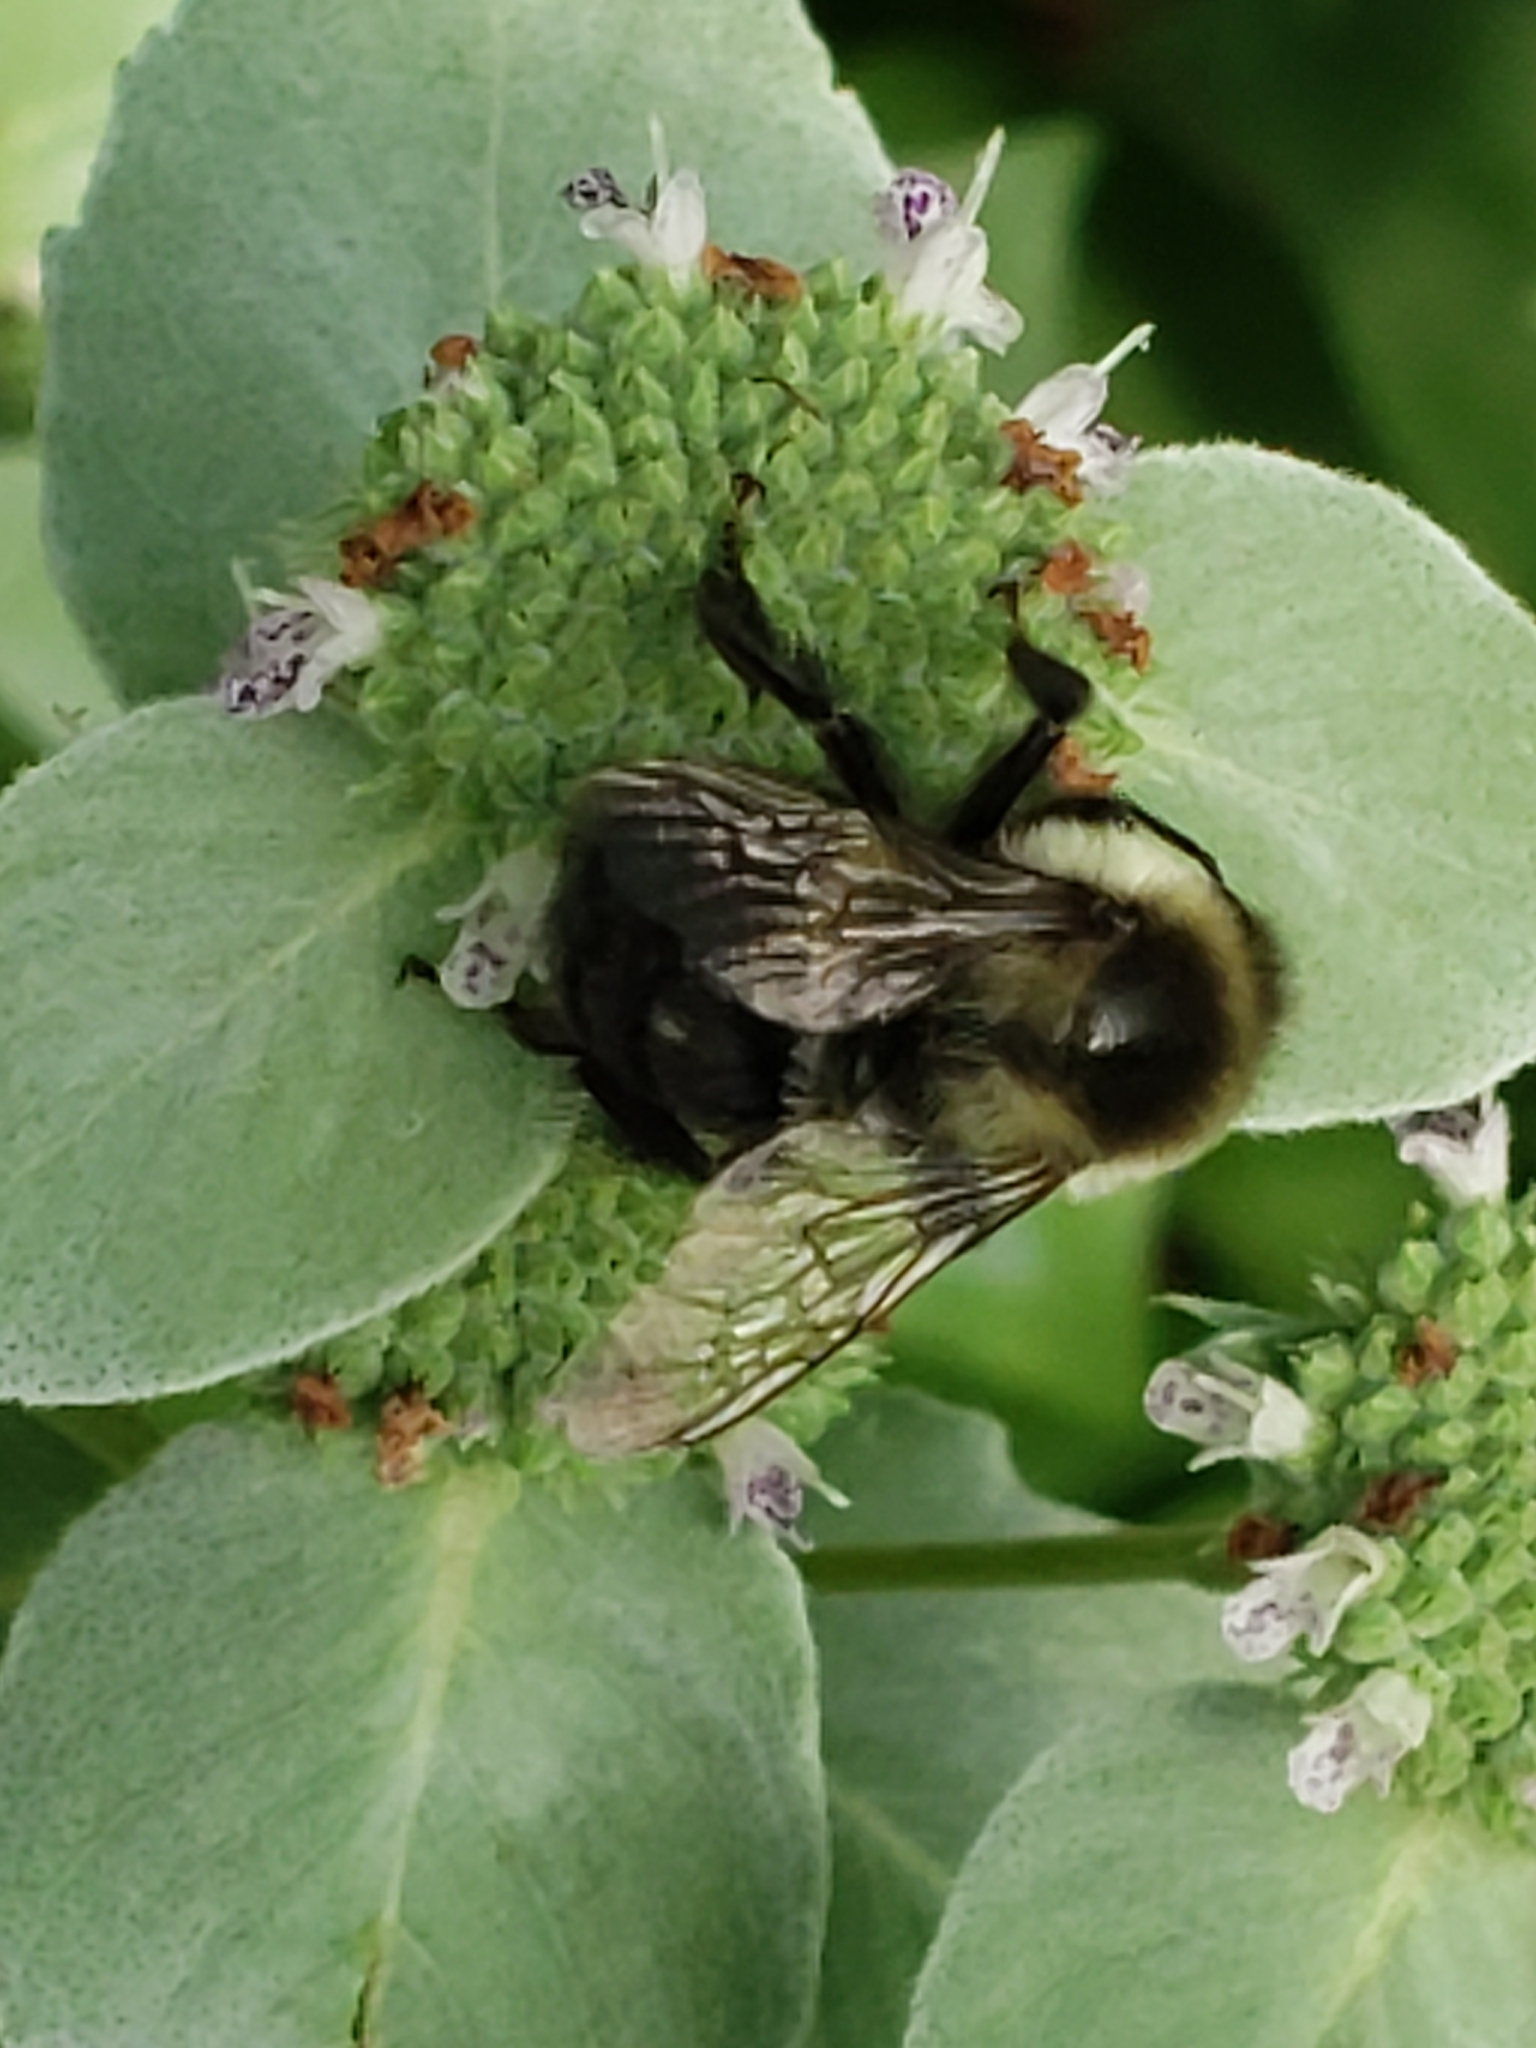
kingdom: Animalia
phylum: Arthropoda
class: Insecta
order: Hymenoptera
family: Apidae
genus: Bombus
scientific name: Bombus impatiens
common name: Common eastern bumble bee
